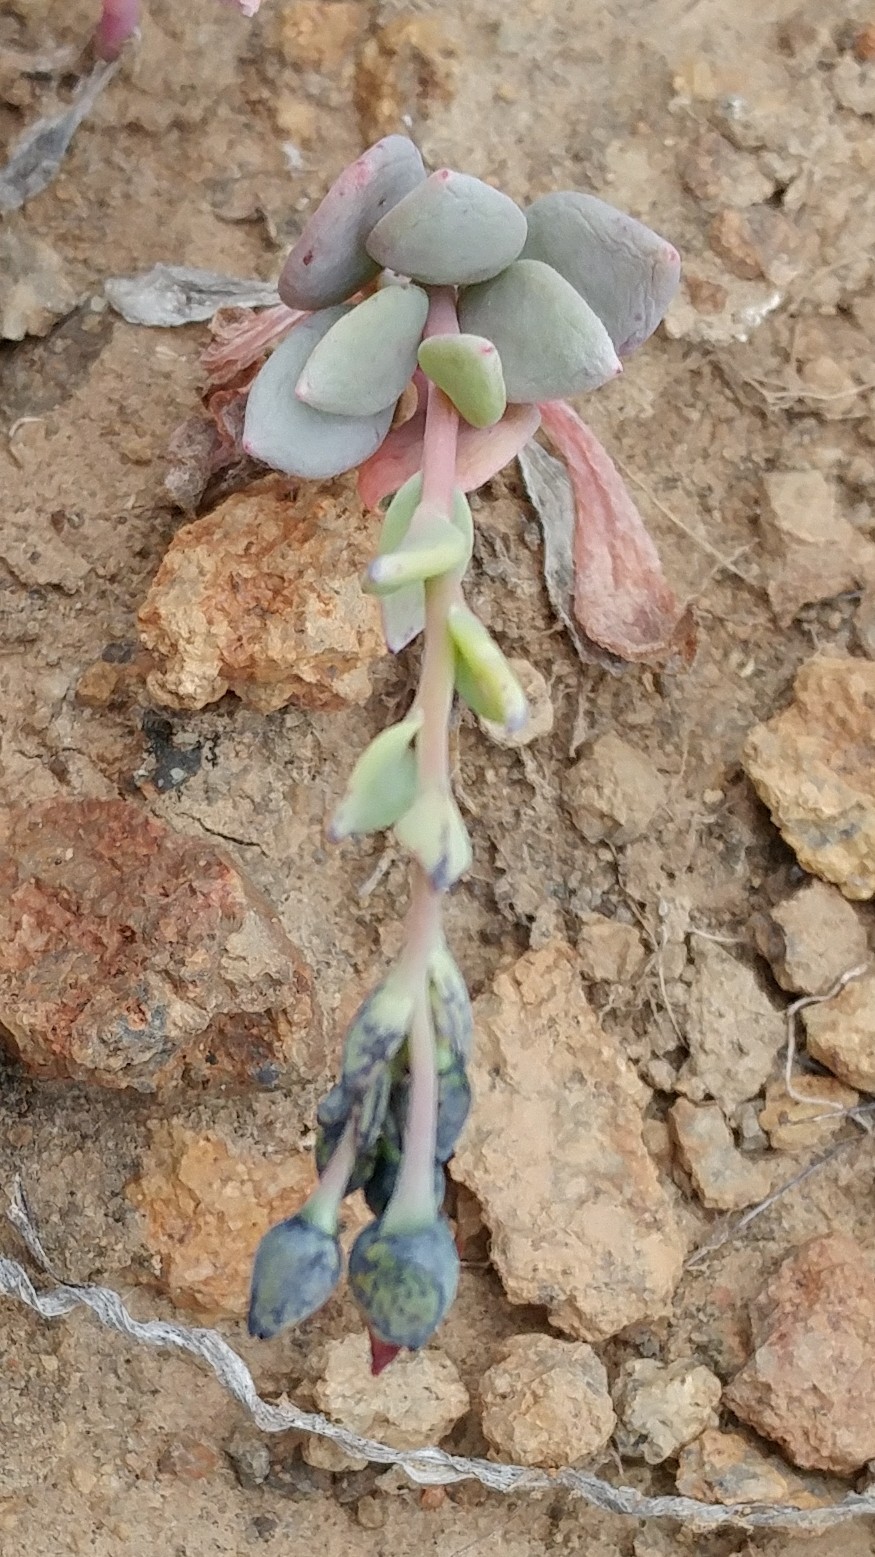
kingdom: Plantae
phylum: Tracheophyta
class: Magnoliopsida
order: Caryophyllales
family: Montiaceae
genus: Cistanthe
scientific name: Cistanthe maritima
